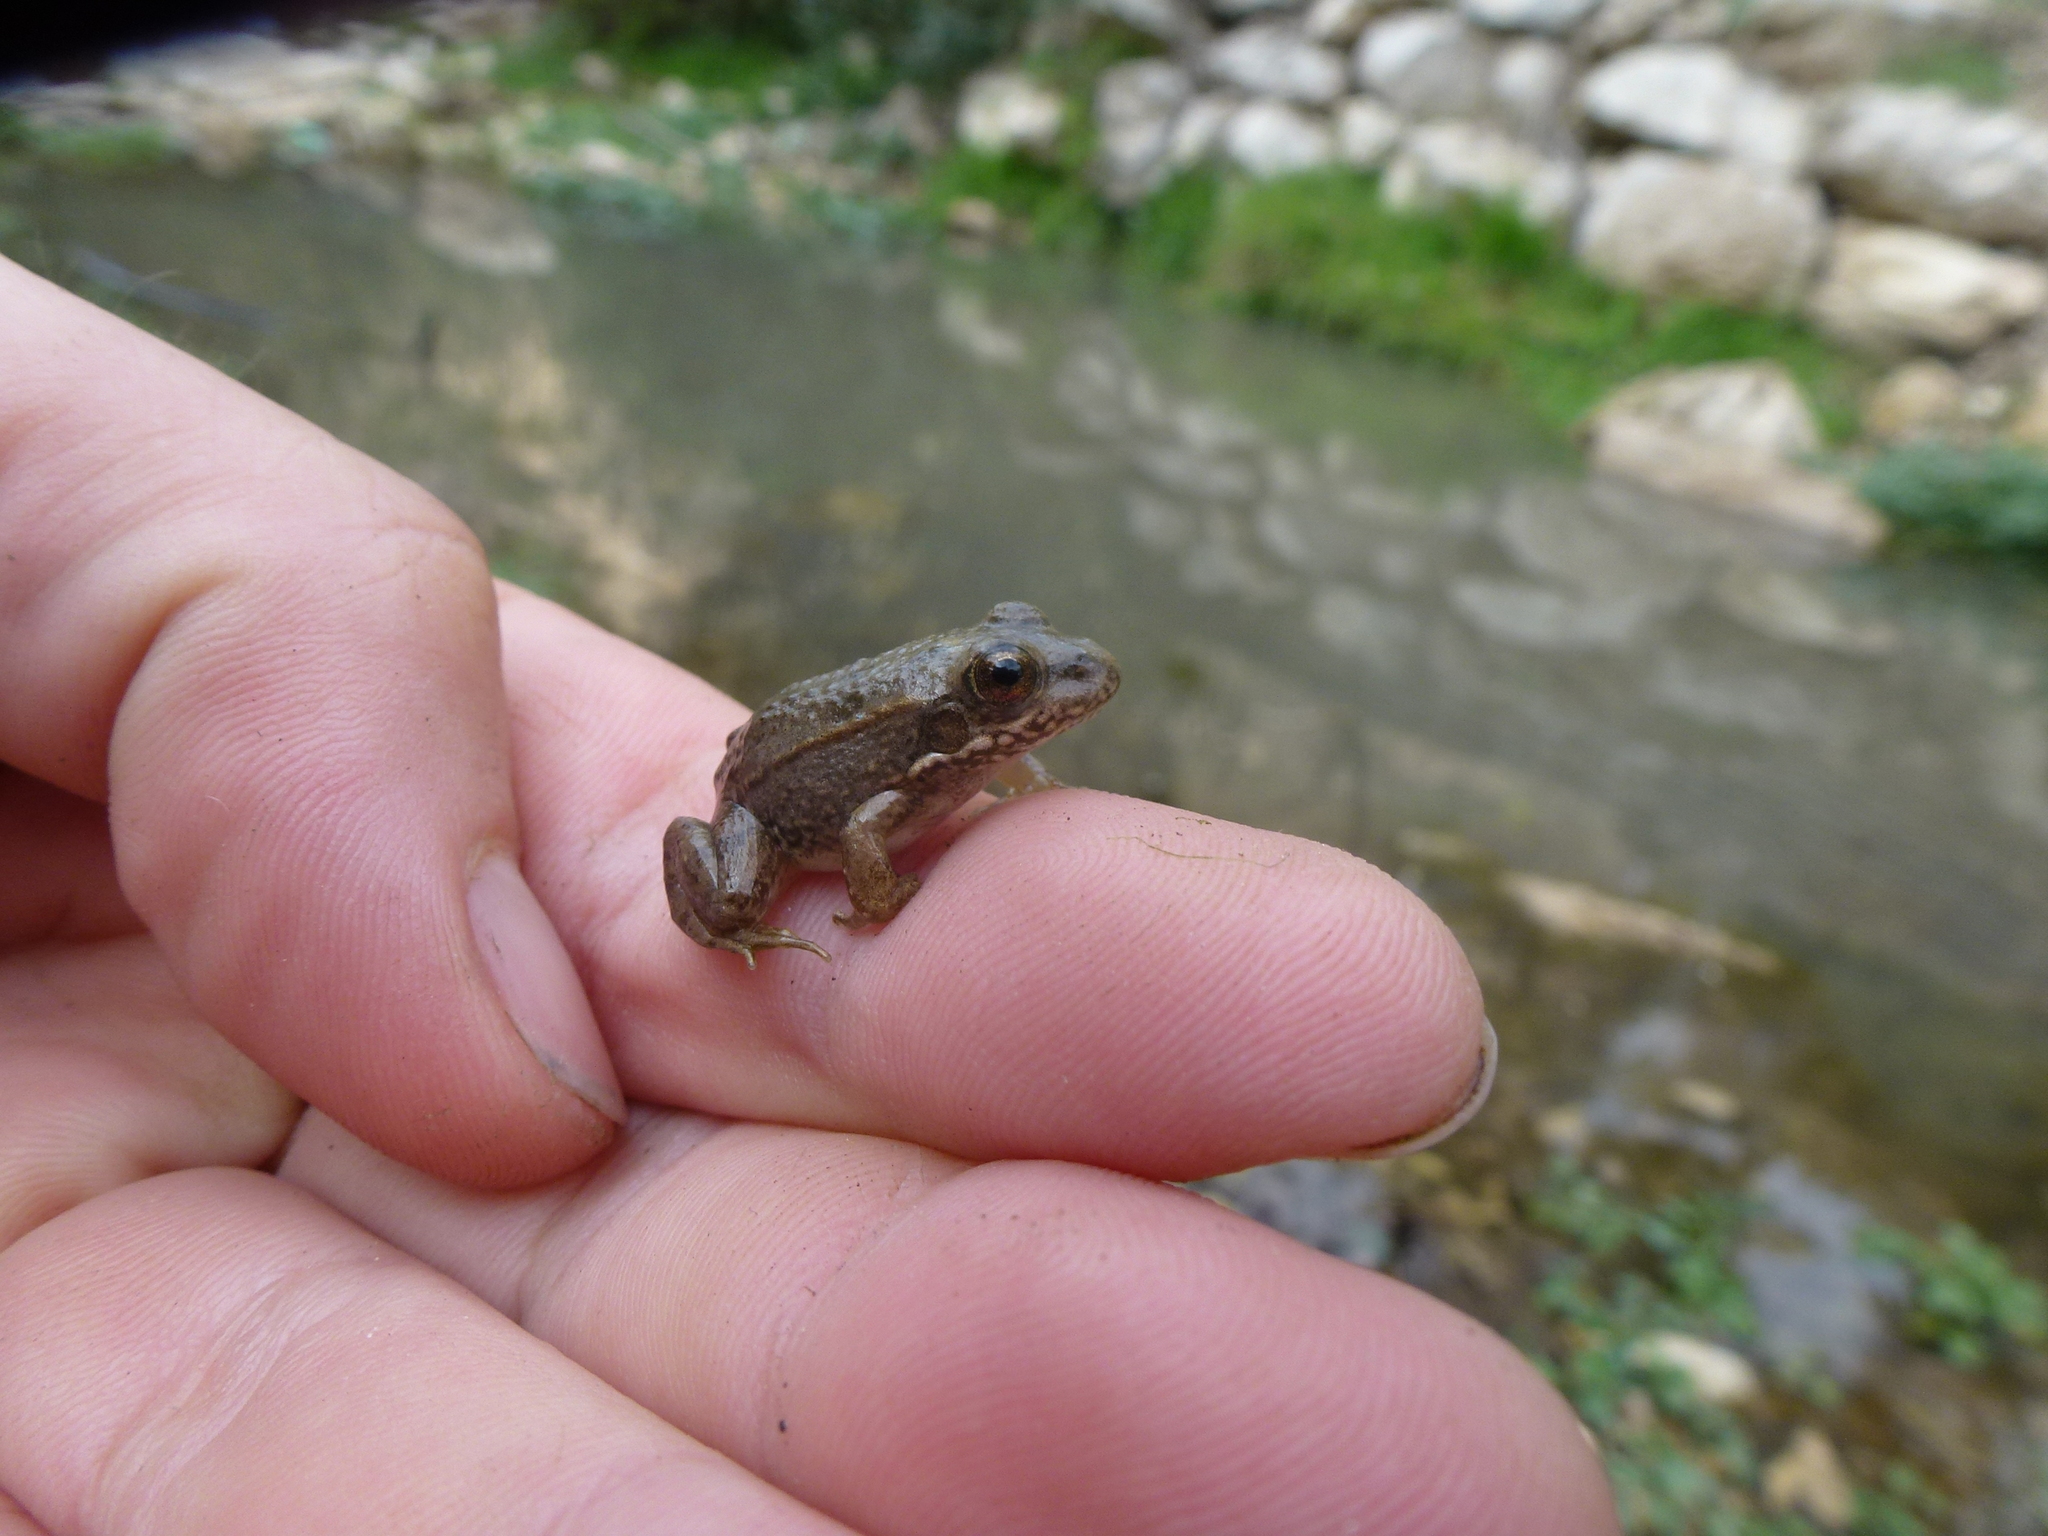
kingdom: Animalia
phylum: Chordata
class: Amphibia
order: Anura
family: Ranidae
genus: Pelophylax
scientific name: Pelophylax ridibundus
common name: Marsh frog
